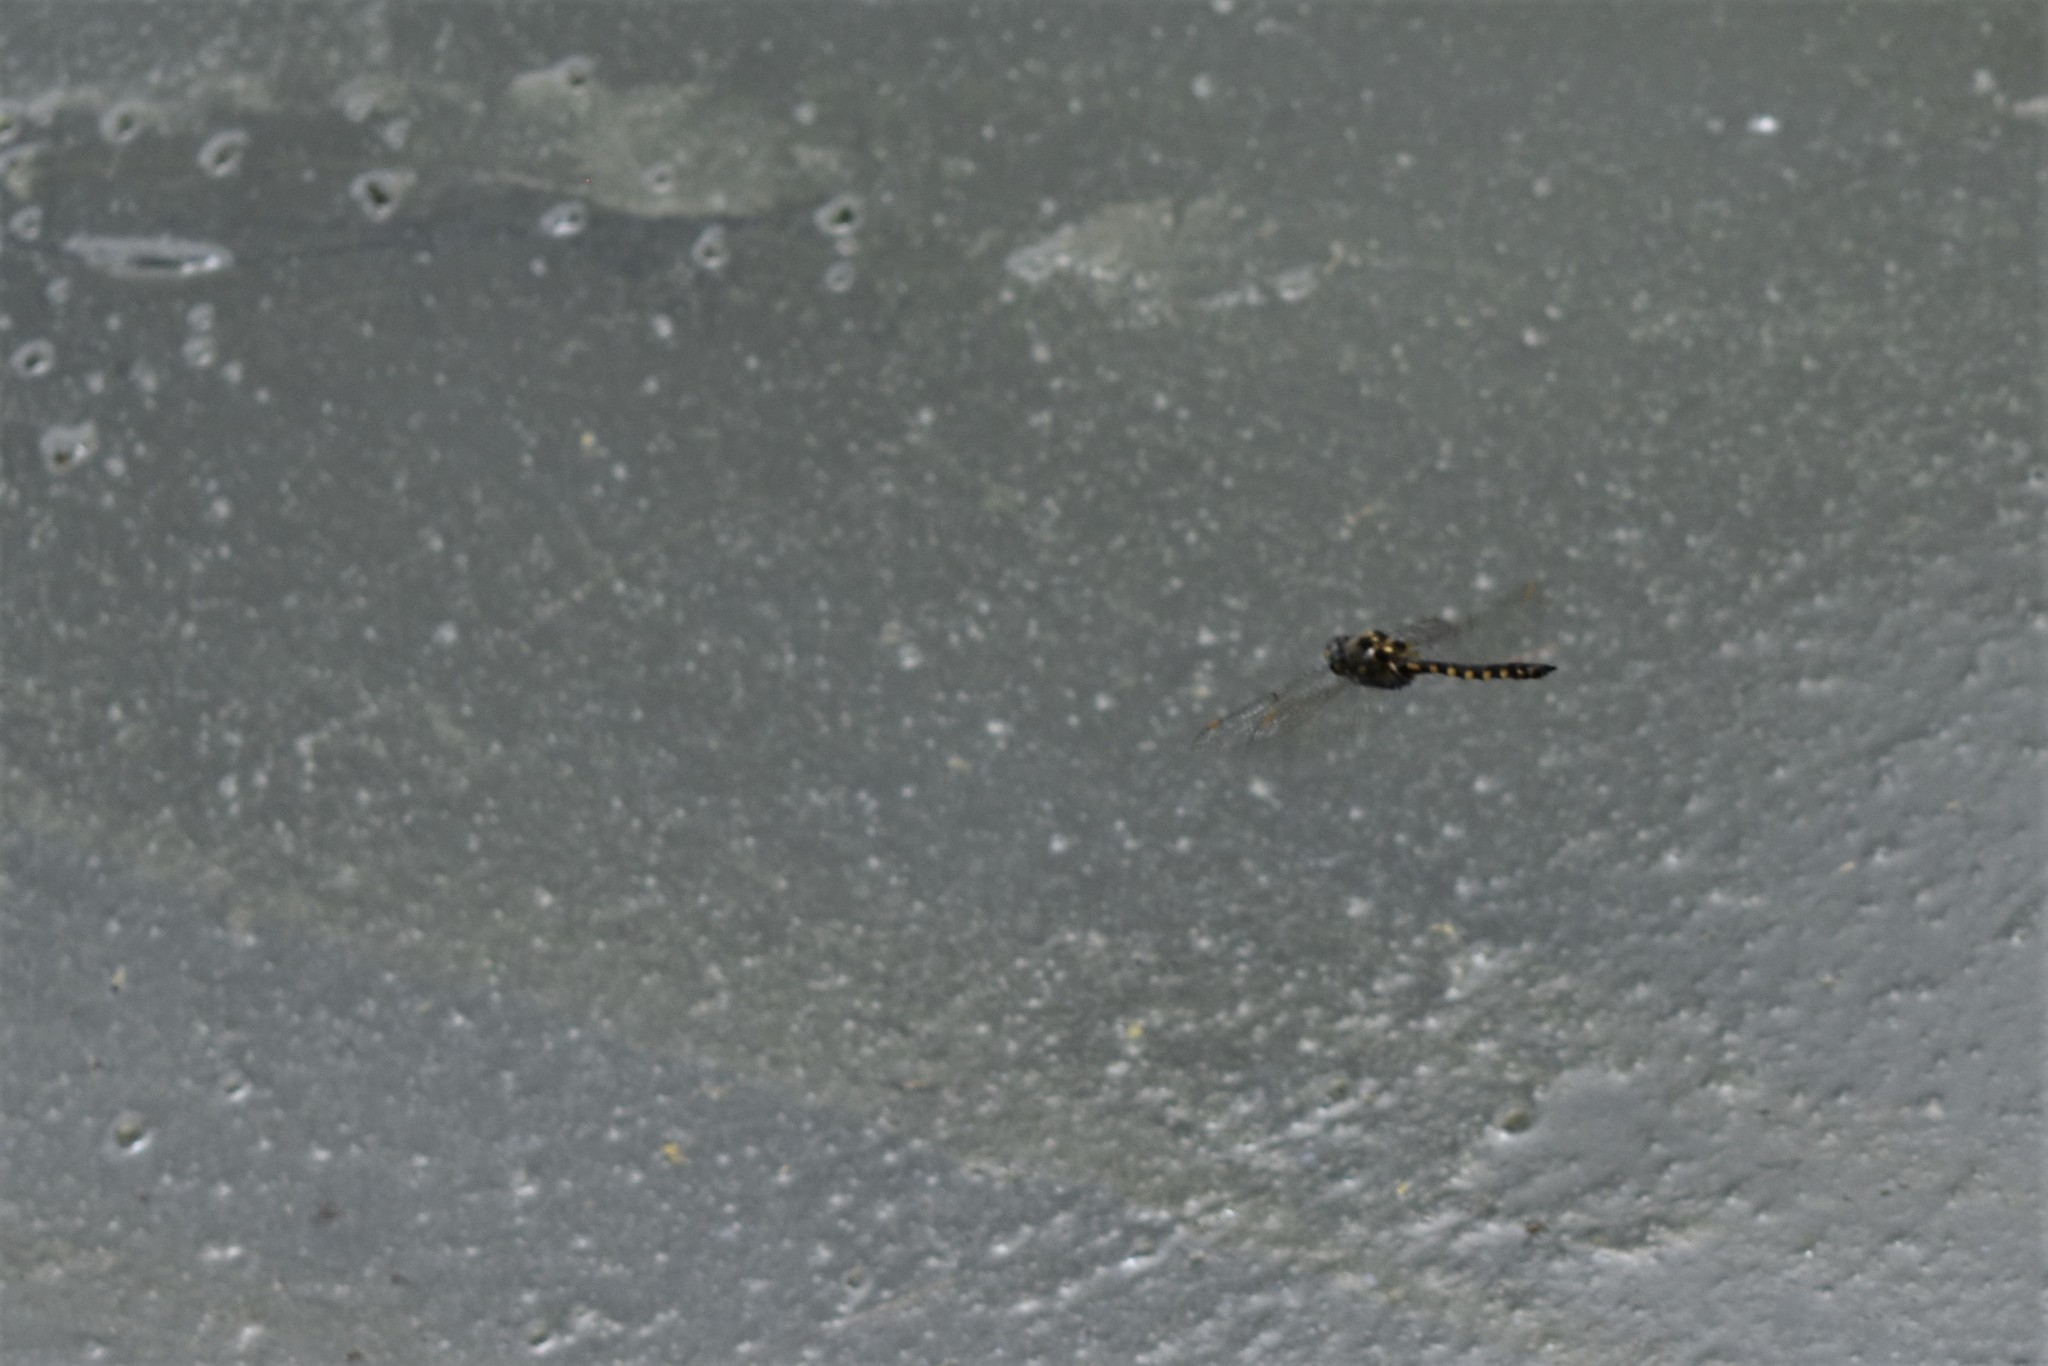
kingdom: Animalia
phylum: Arthropoda
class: Insecta
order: Odonata
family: Corduliidae
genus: Procordulia
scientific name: Procordulia grayi
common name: Yellow spotted dragonfly
